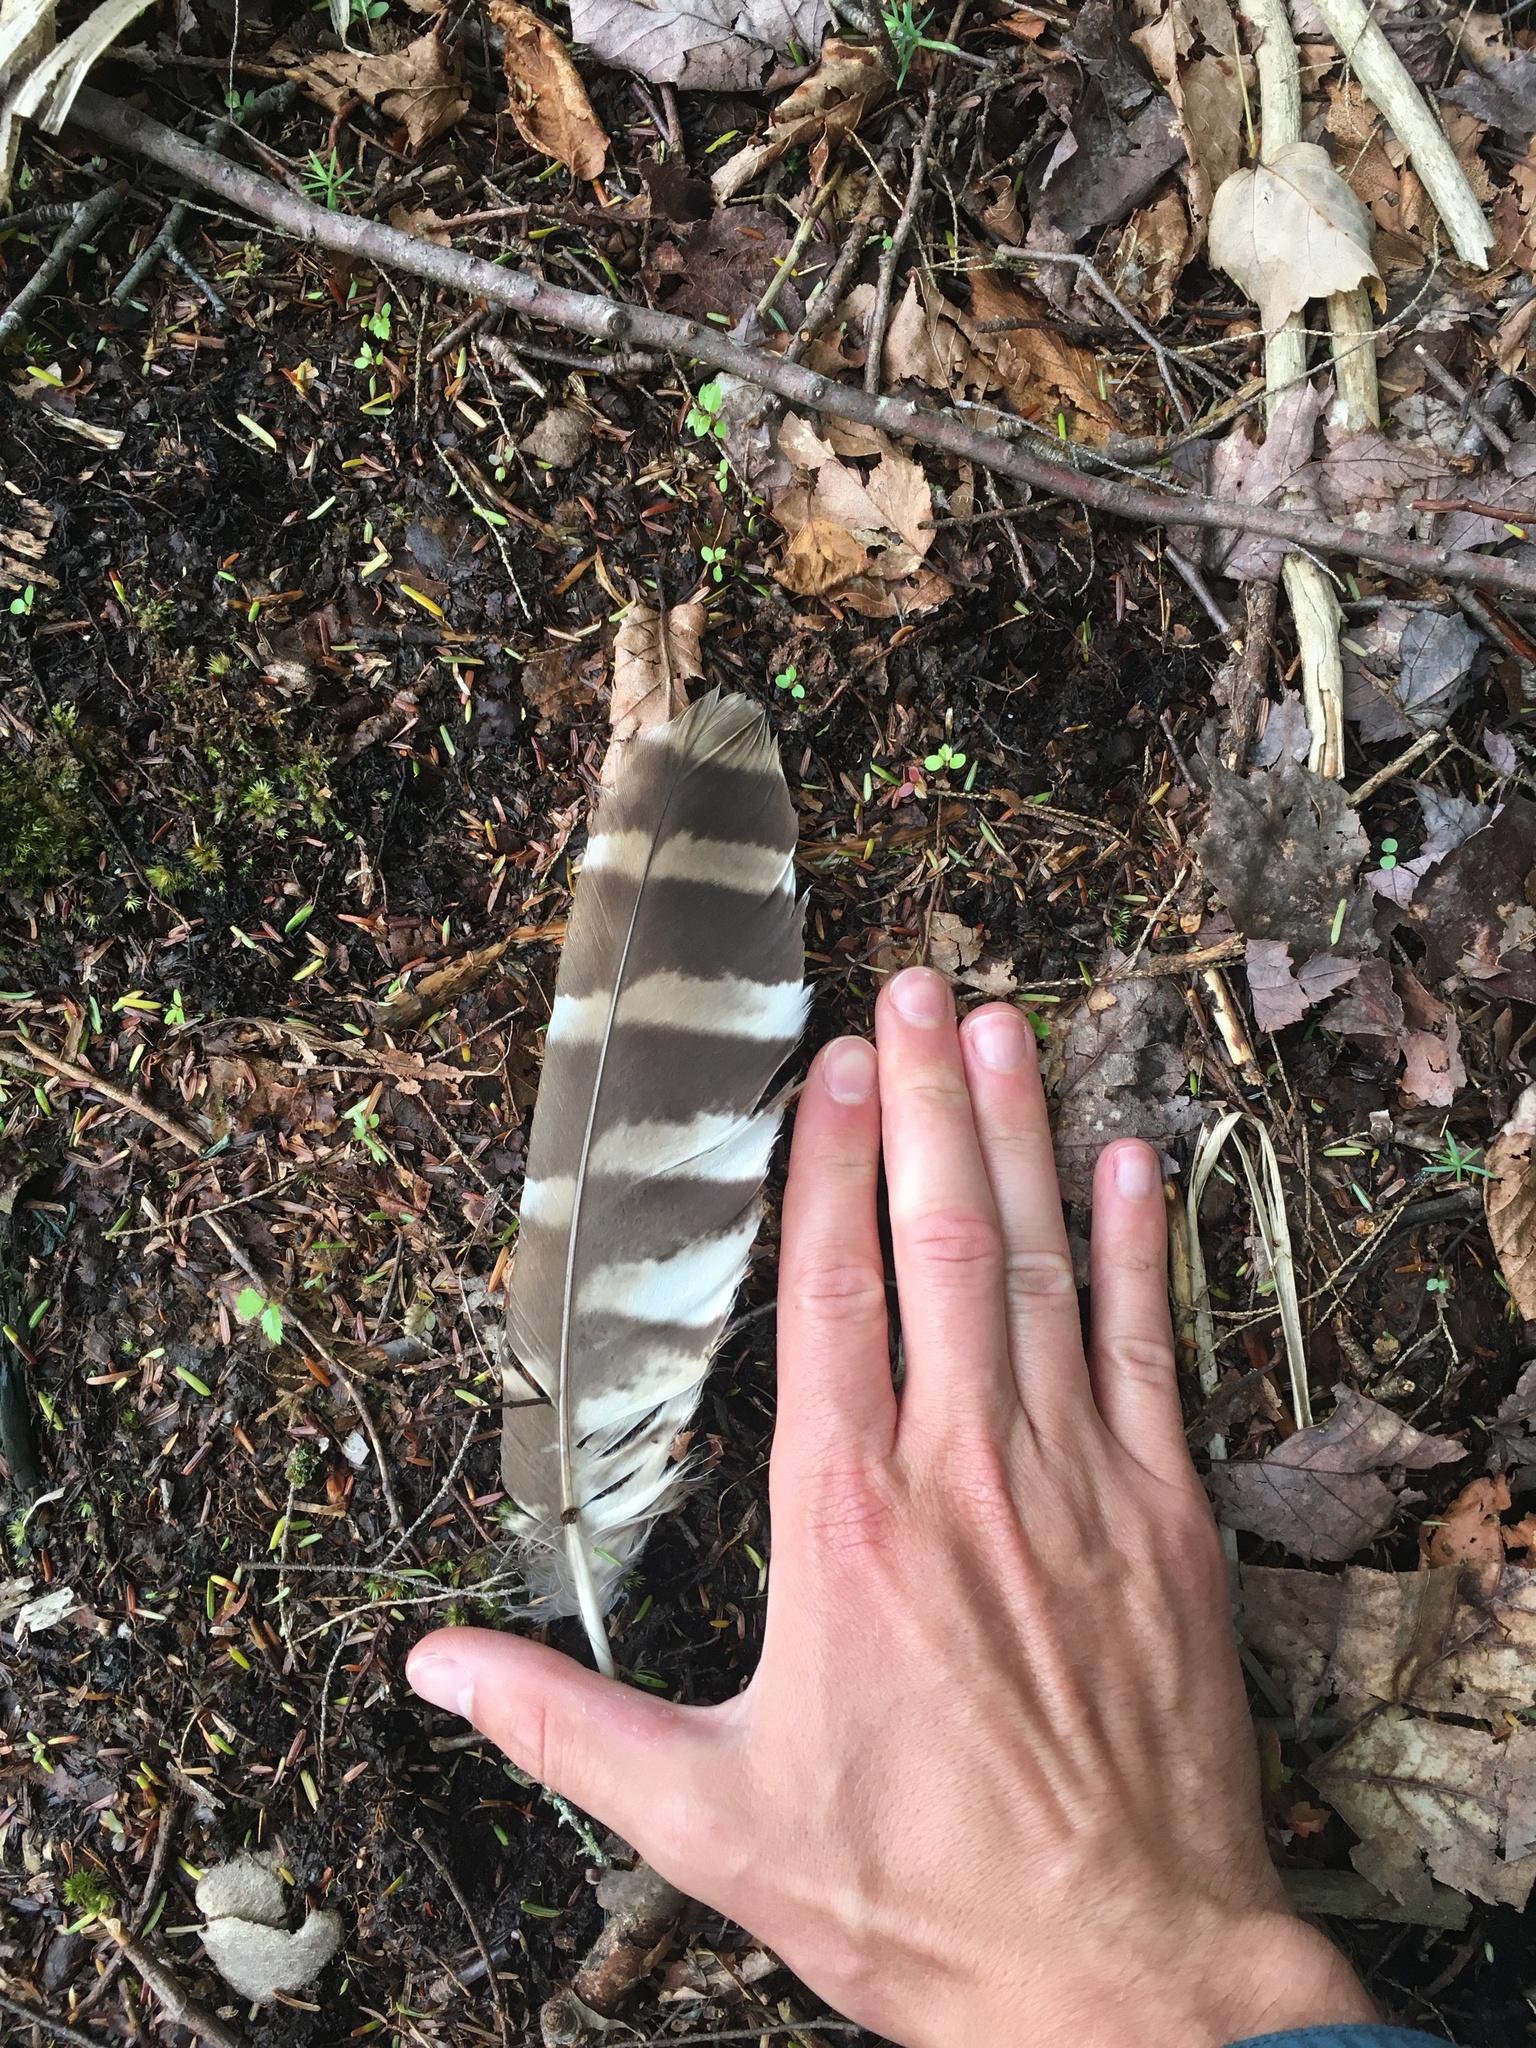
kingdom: Animalia
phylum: Chordata
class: Aves
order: Strigiformes
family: Strigidae
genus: Strix
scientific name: Strix varia
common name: Barred owl
